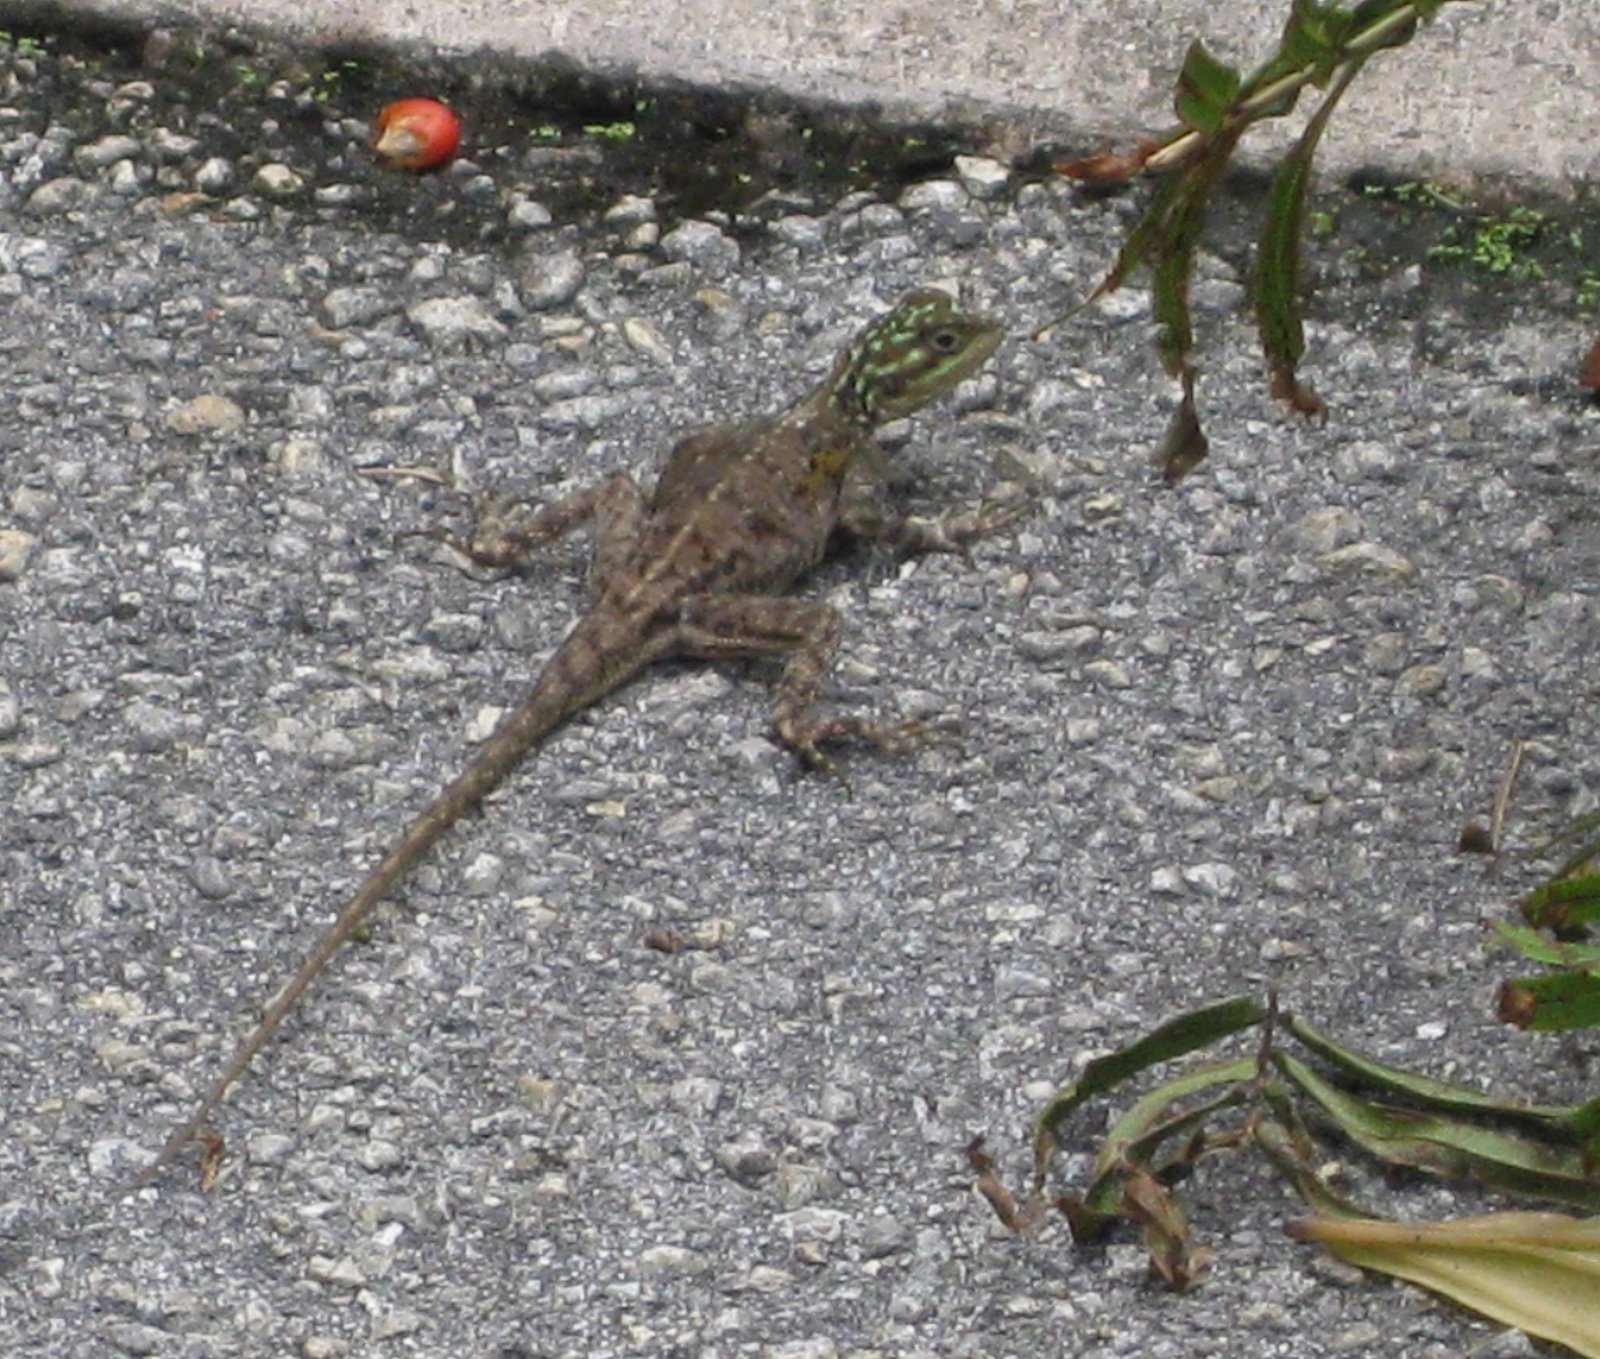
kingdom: Animalia
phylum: Chordata
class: Squamata
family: Agamidae
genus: Agama
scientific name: Agama picticauda
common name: Red-headed agama
